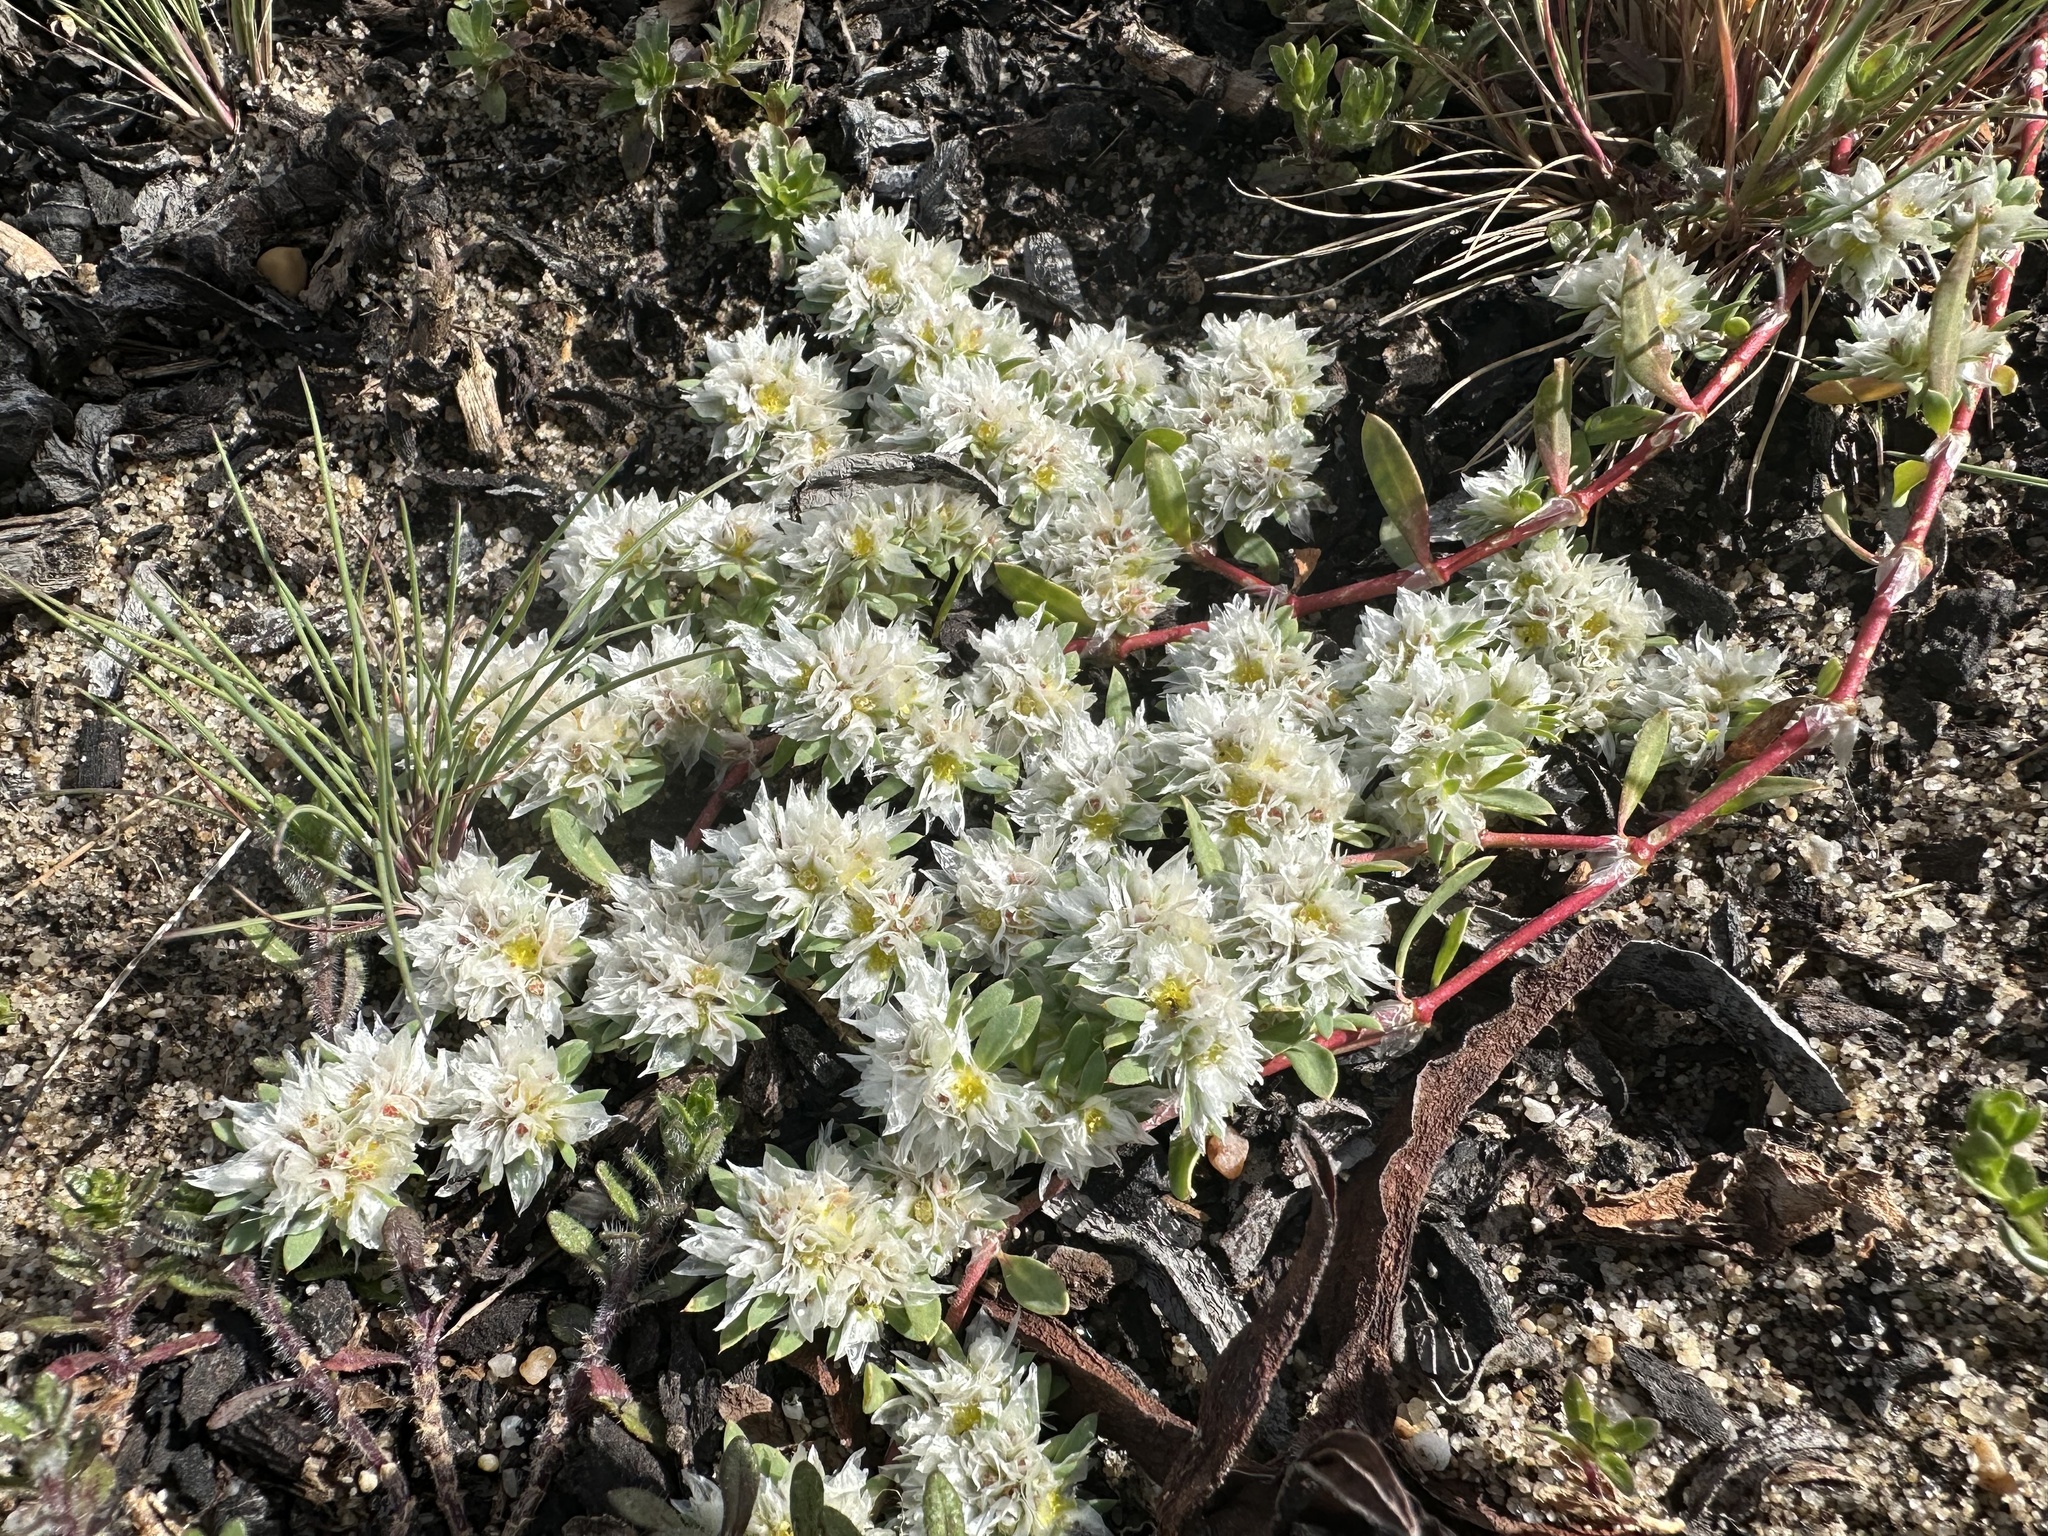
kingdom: Plantae
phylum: Tracheophyta
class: Magnoliopsida
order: Caryophyllales
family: Caryophyllaceae
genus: Paronychia
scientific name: Paronychia argentea
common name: Silver nailroot
